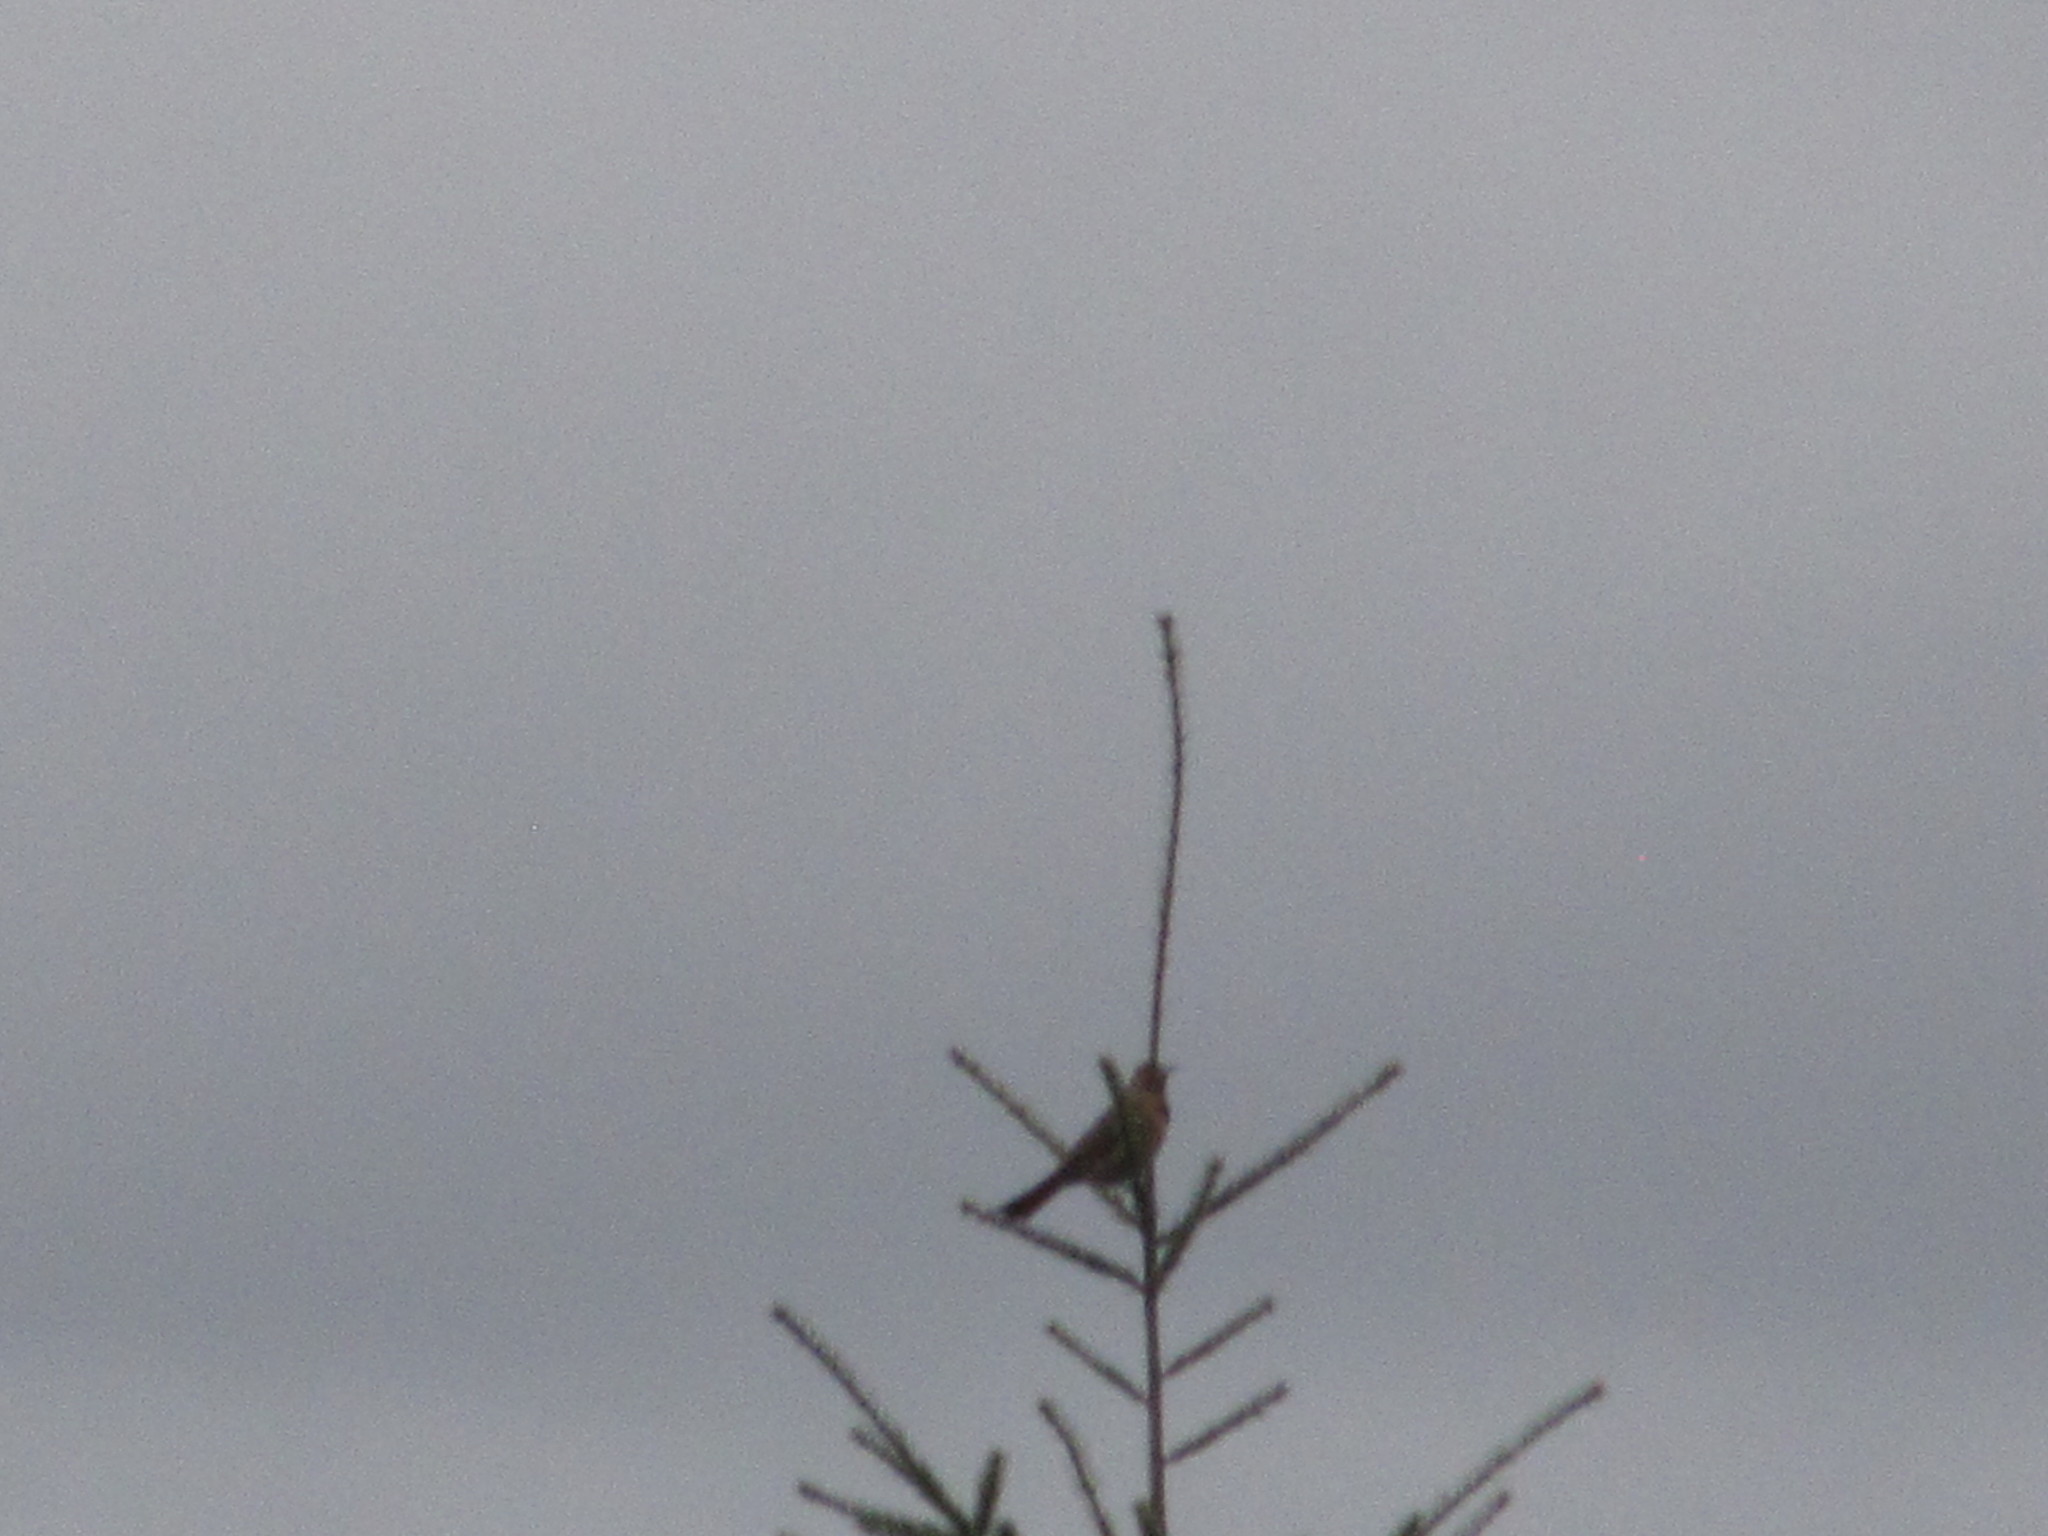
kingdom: Animalia
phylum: Chordata
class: Aves
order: Piciformes
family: Picidae
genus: Colaptes
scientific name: Colaptes auratus
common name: Northern flicker
